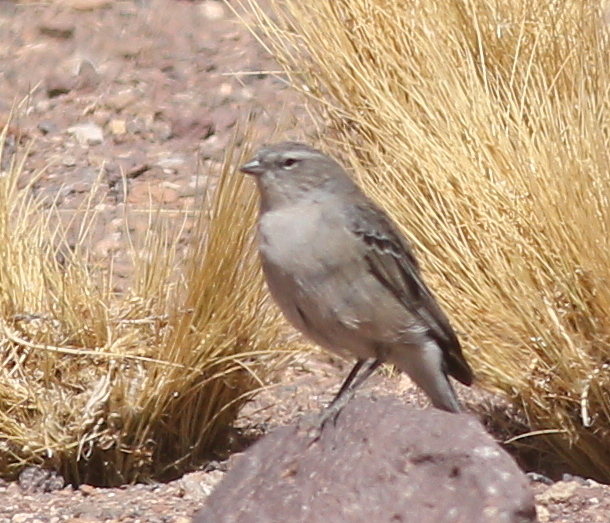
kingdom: Animalia
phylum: Chordata
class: Aves
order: Passeriformes
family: Thraupidae
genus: Geospizopsis
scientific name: Geospizopsis plebejus
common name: Ash-breasted sierra-finch
